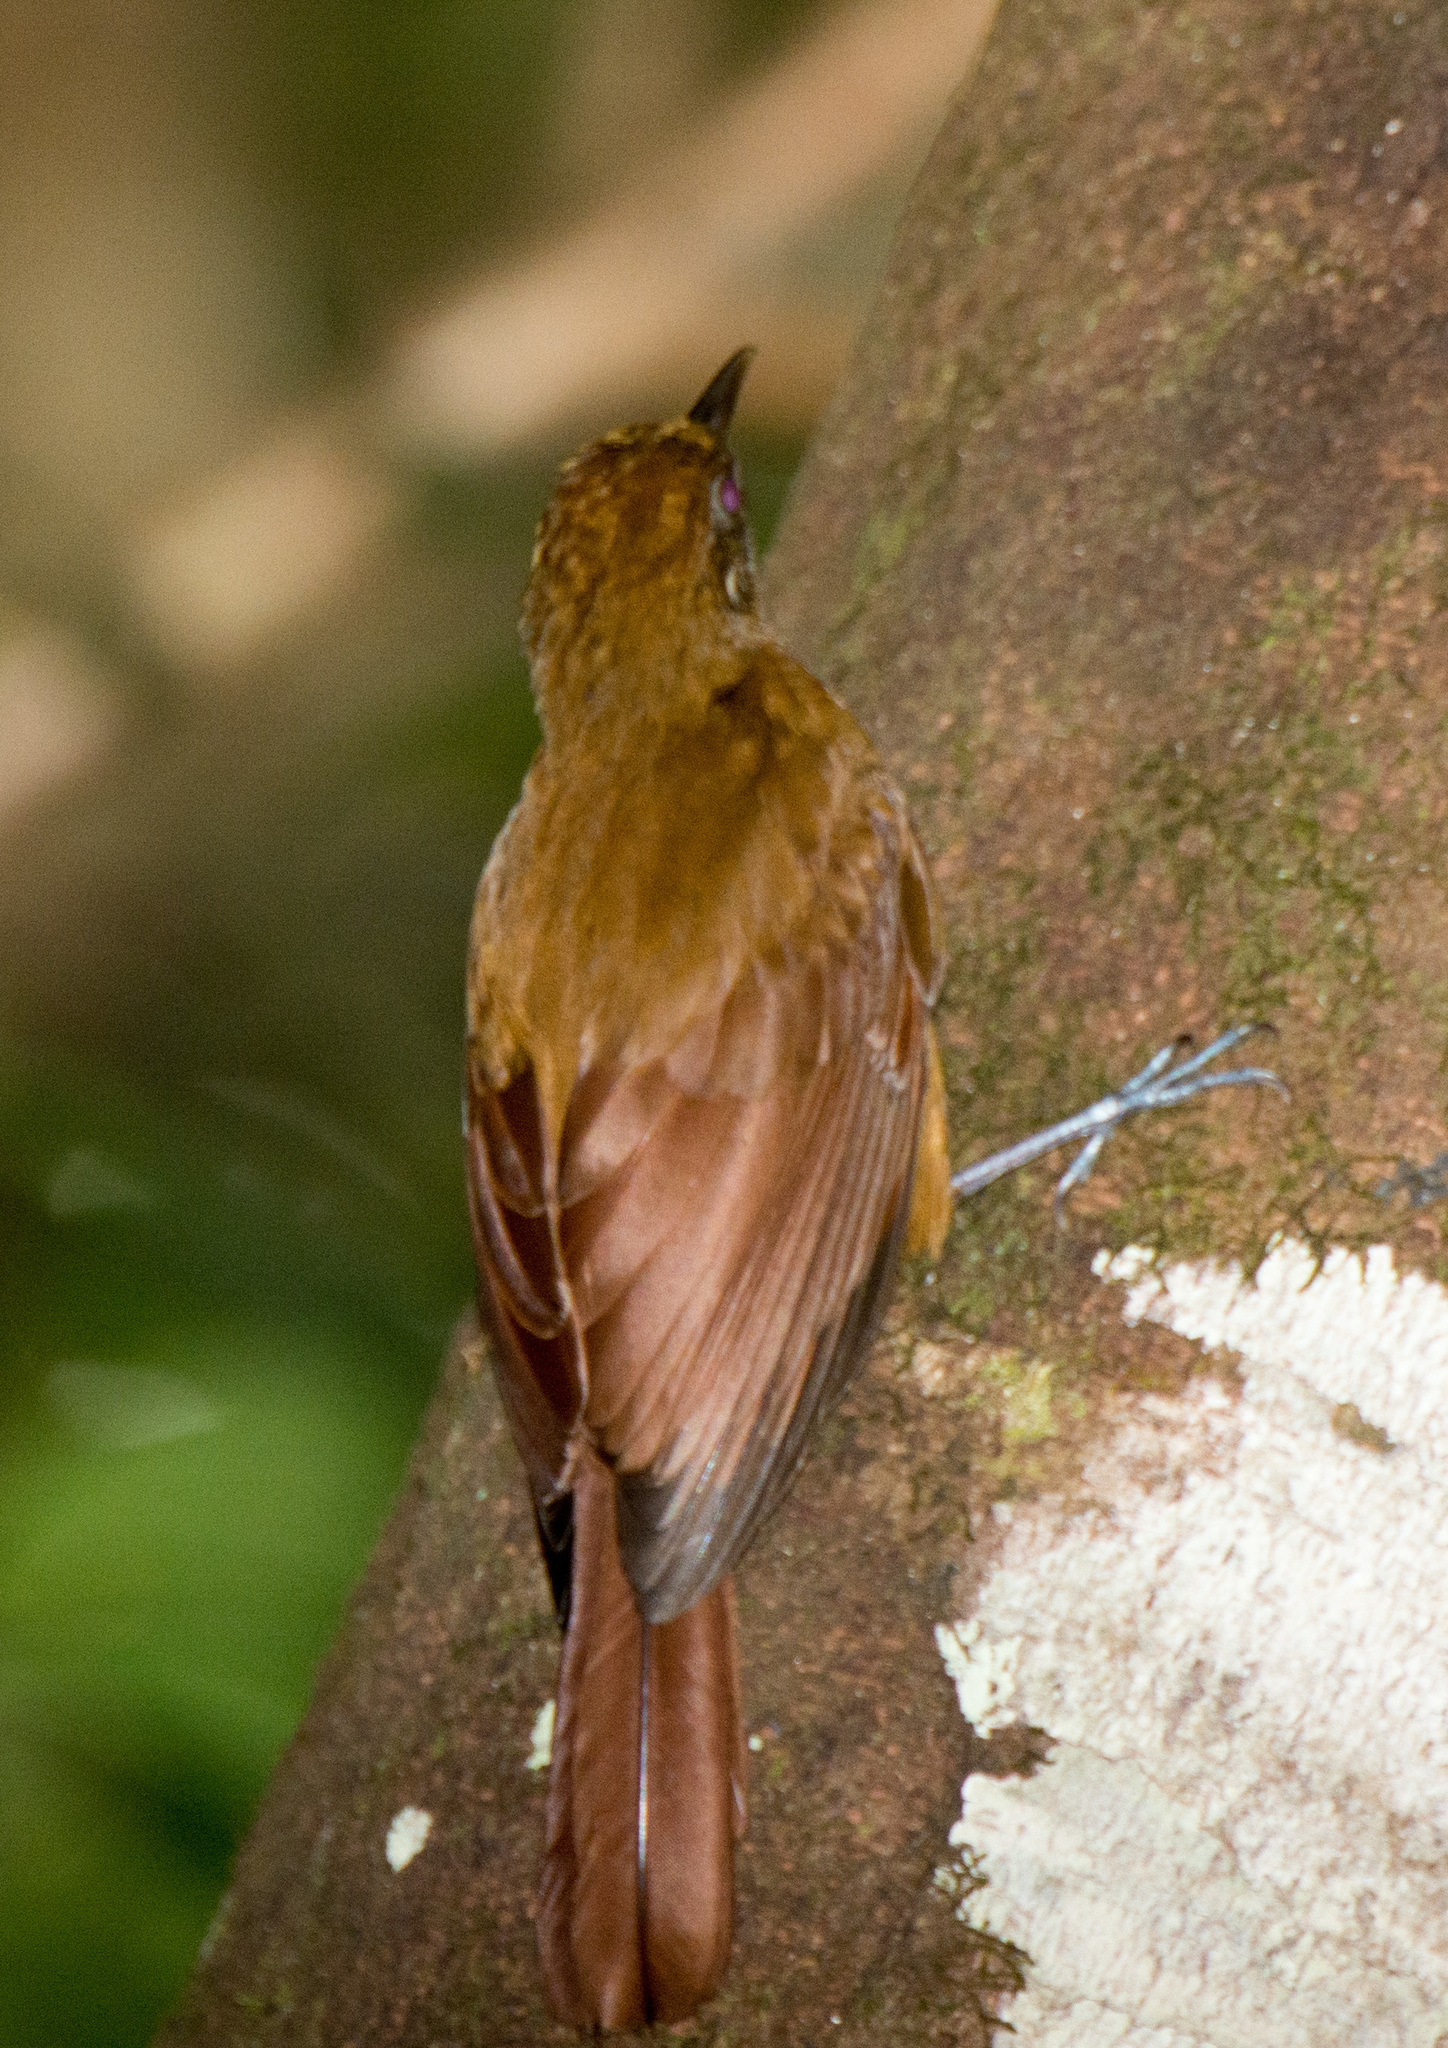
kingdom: Animalia
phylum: Chordata
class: Aves
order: Passeriformes
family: Furnariidae
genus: Dendrocincla
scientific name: Dendrocincla fuliginosa
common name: Plain-brown woodcreeper
